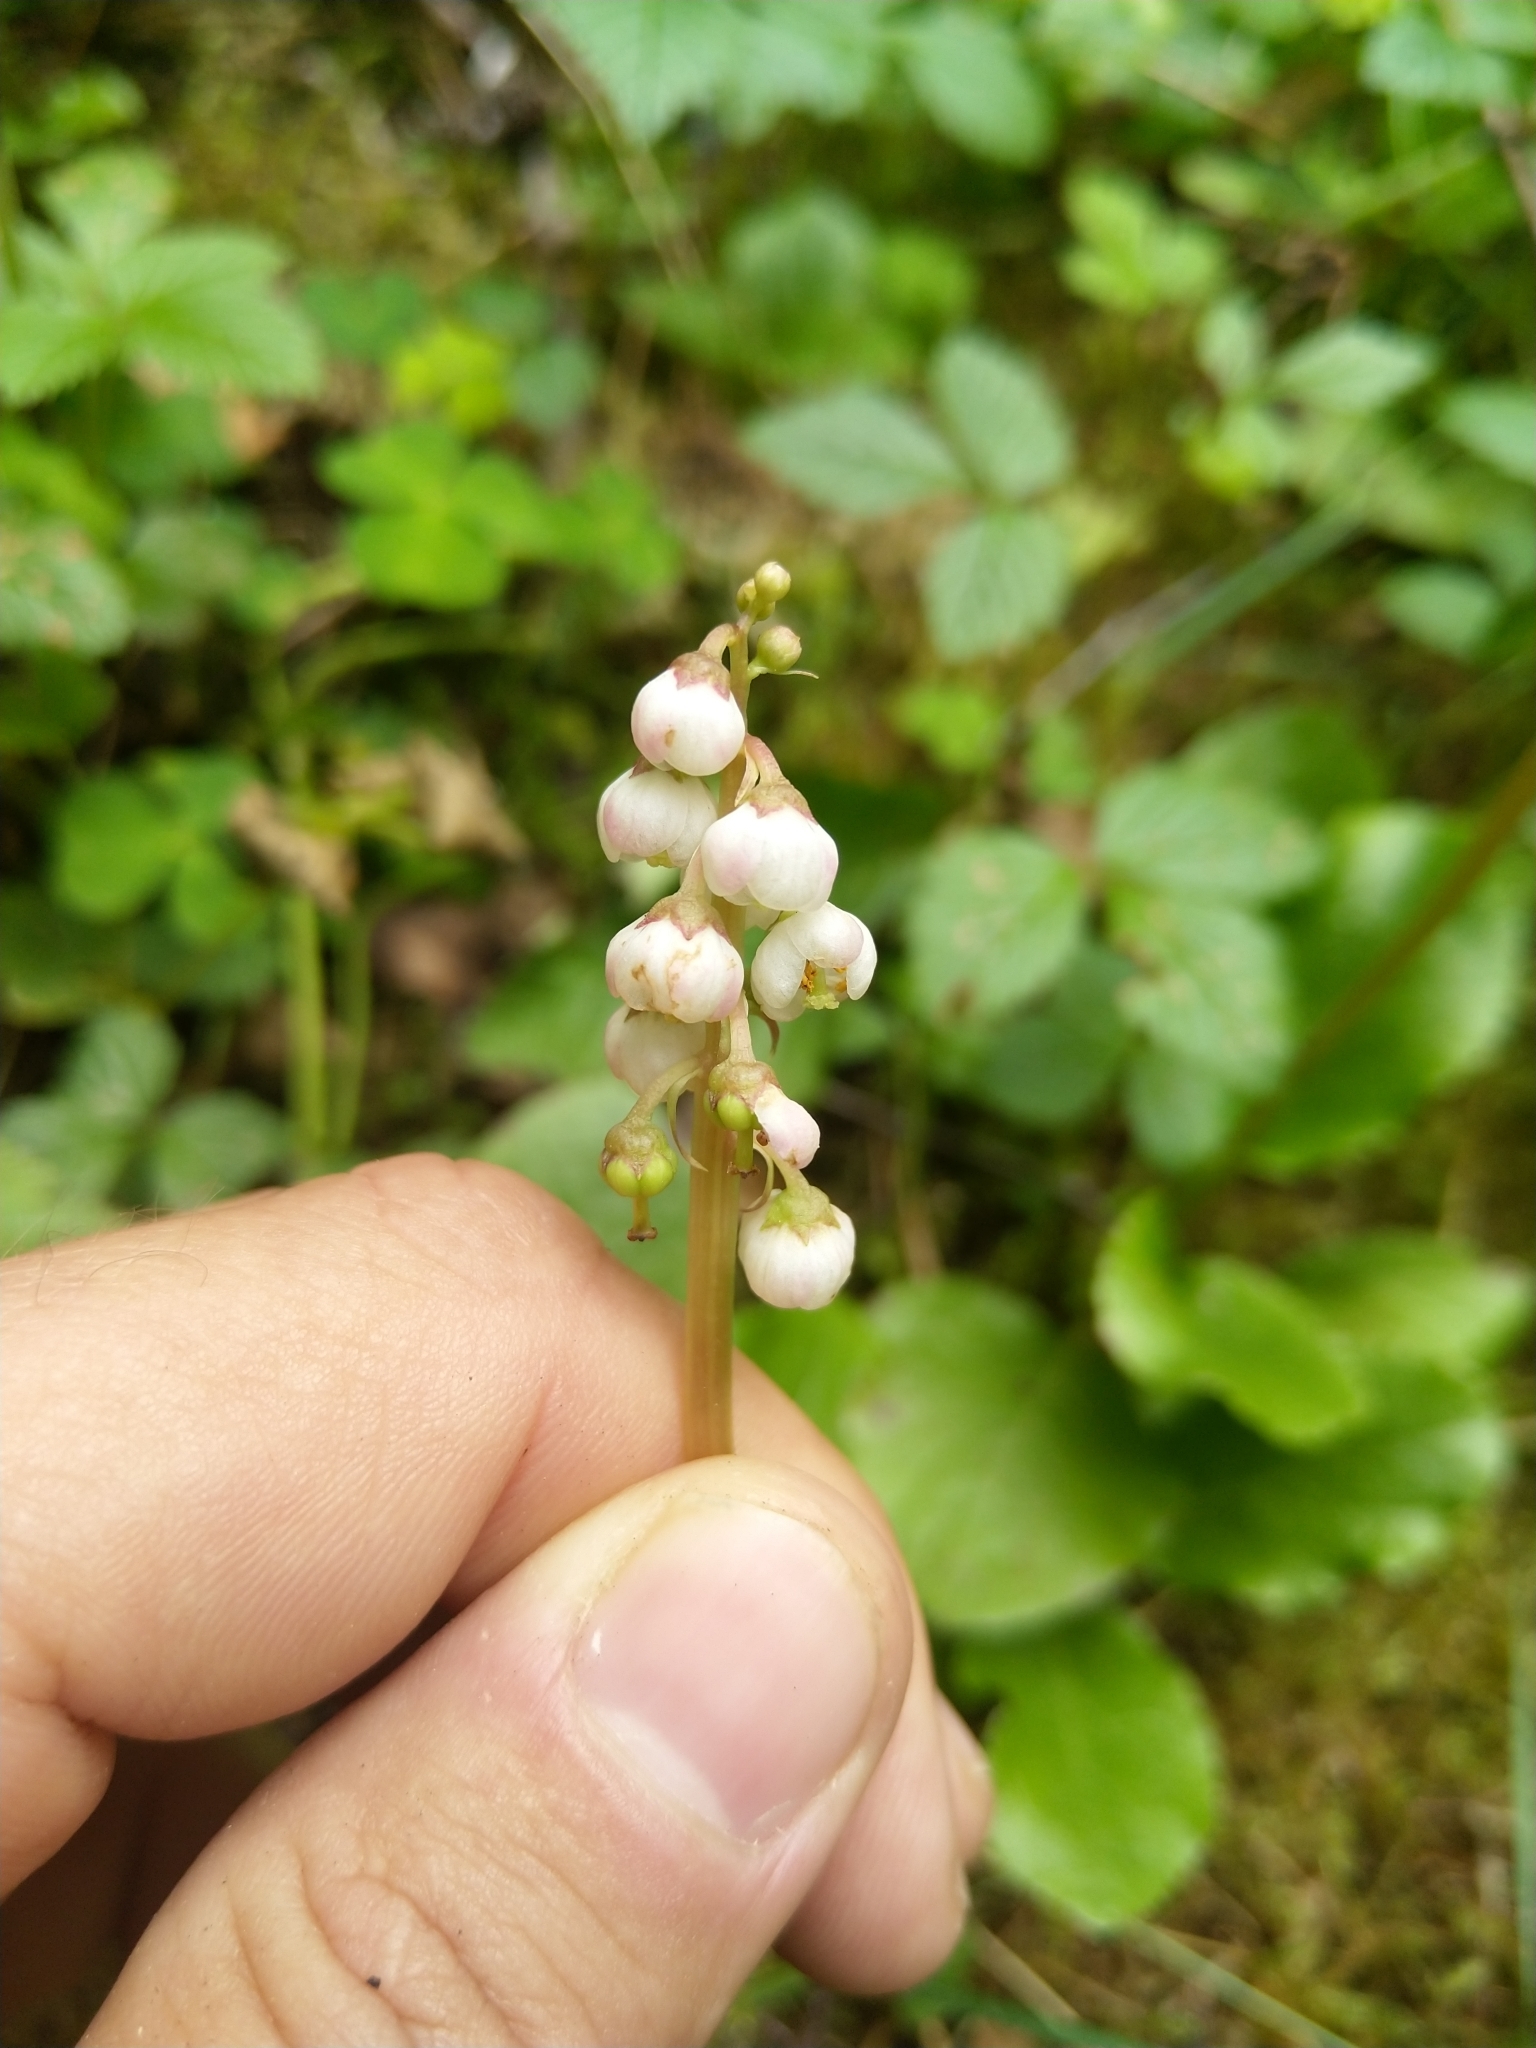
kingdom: Plantae
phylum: Tracheophyta
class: Magnoliopsida
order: Ericales
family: Ericaceae
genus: Pyrola
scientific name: Pyrola minor
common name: Common wintergreen
